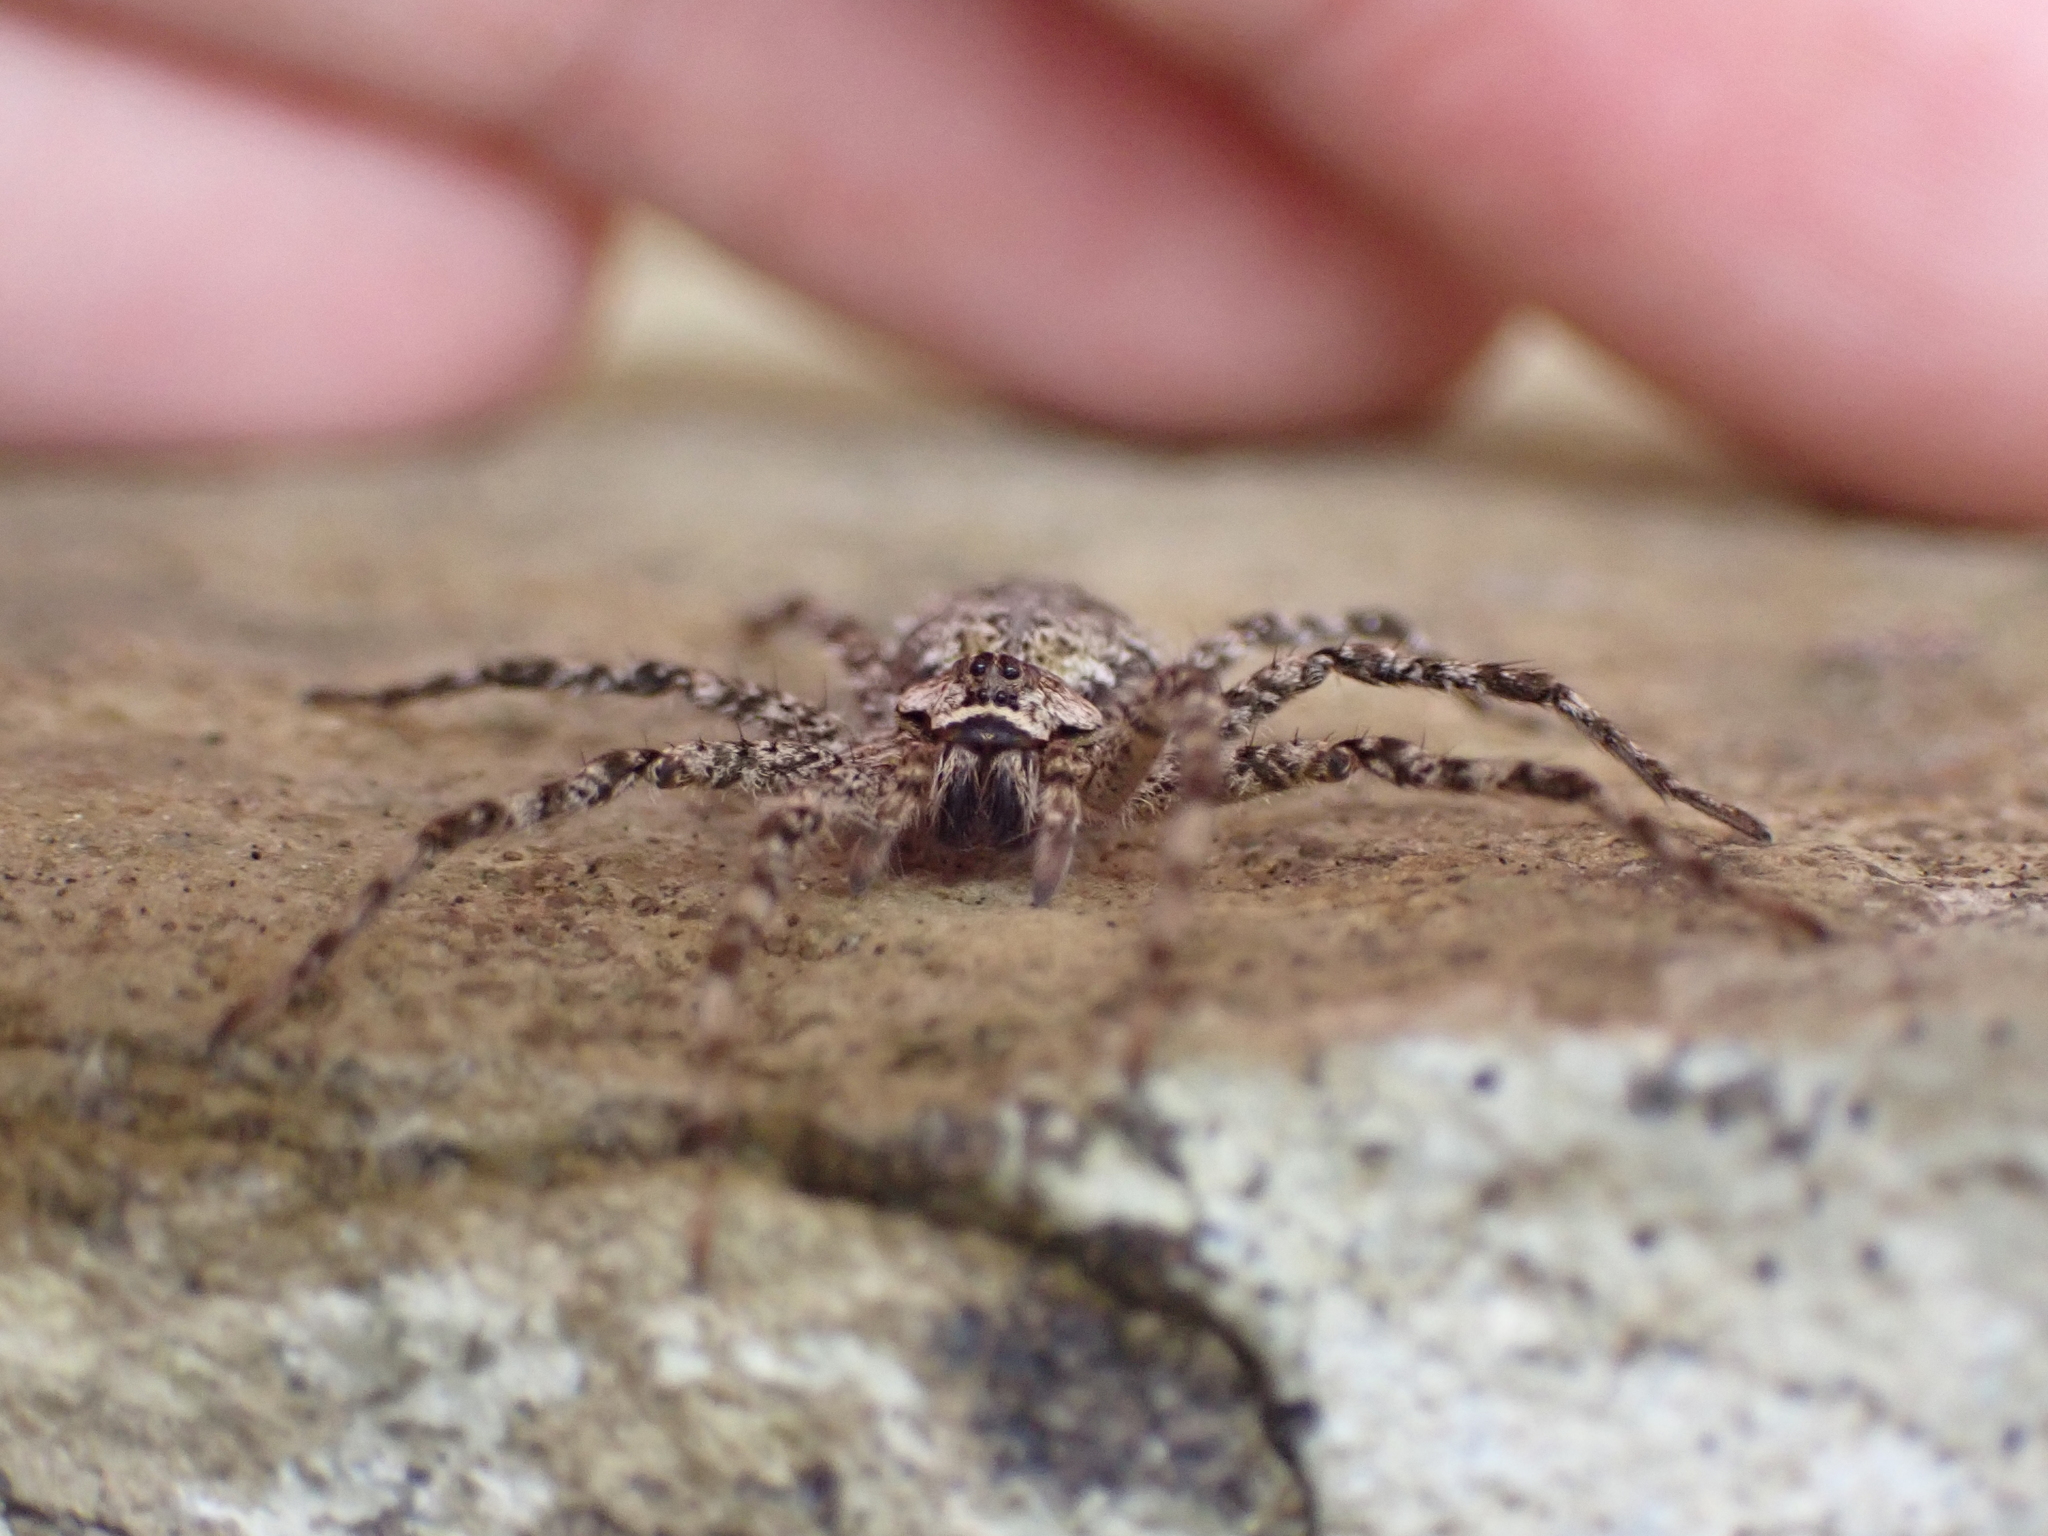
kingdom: Animalia
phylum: Arthropoda
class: Arachnida
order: Araneae
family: Pisauridae
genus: Dolomedes
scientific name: Dolomedes albineus
